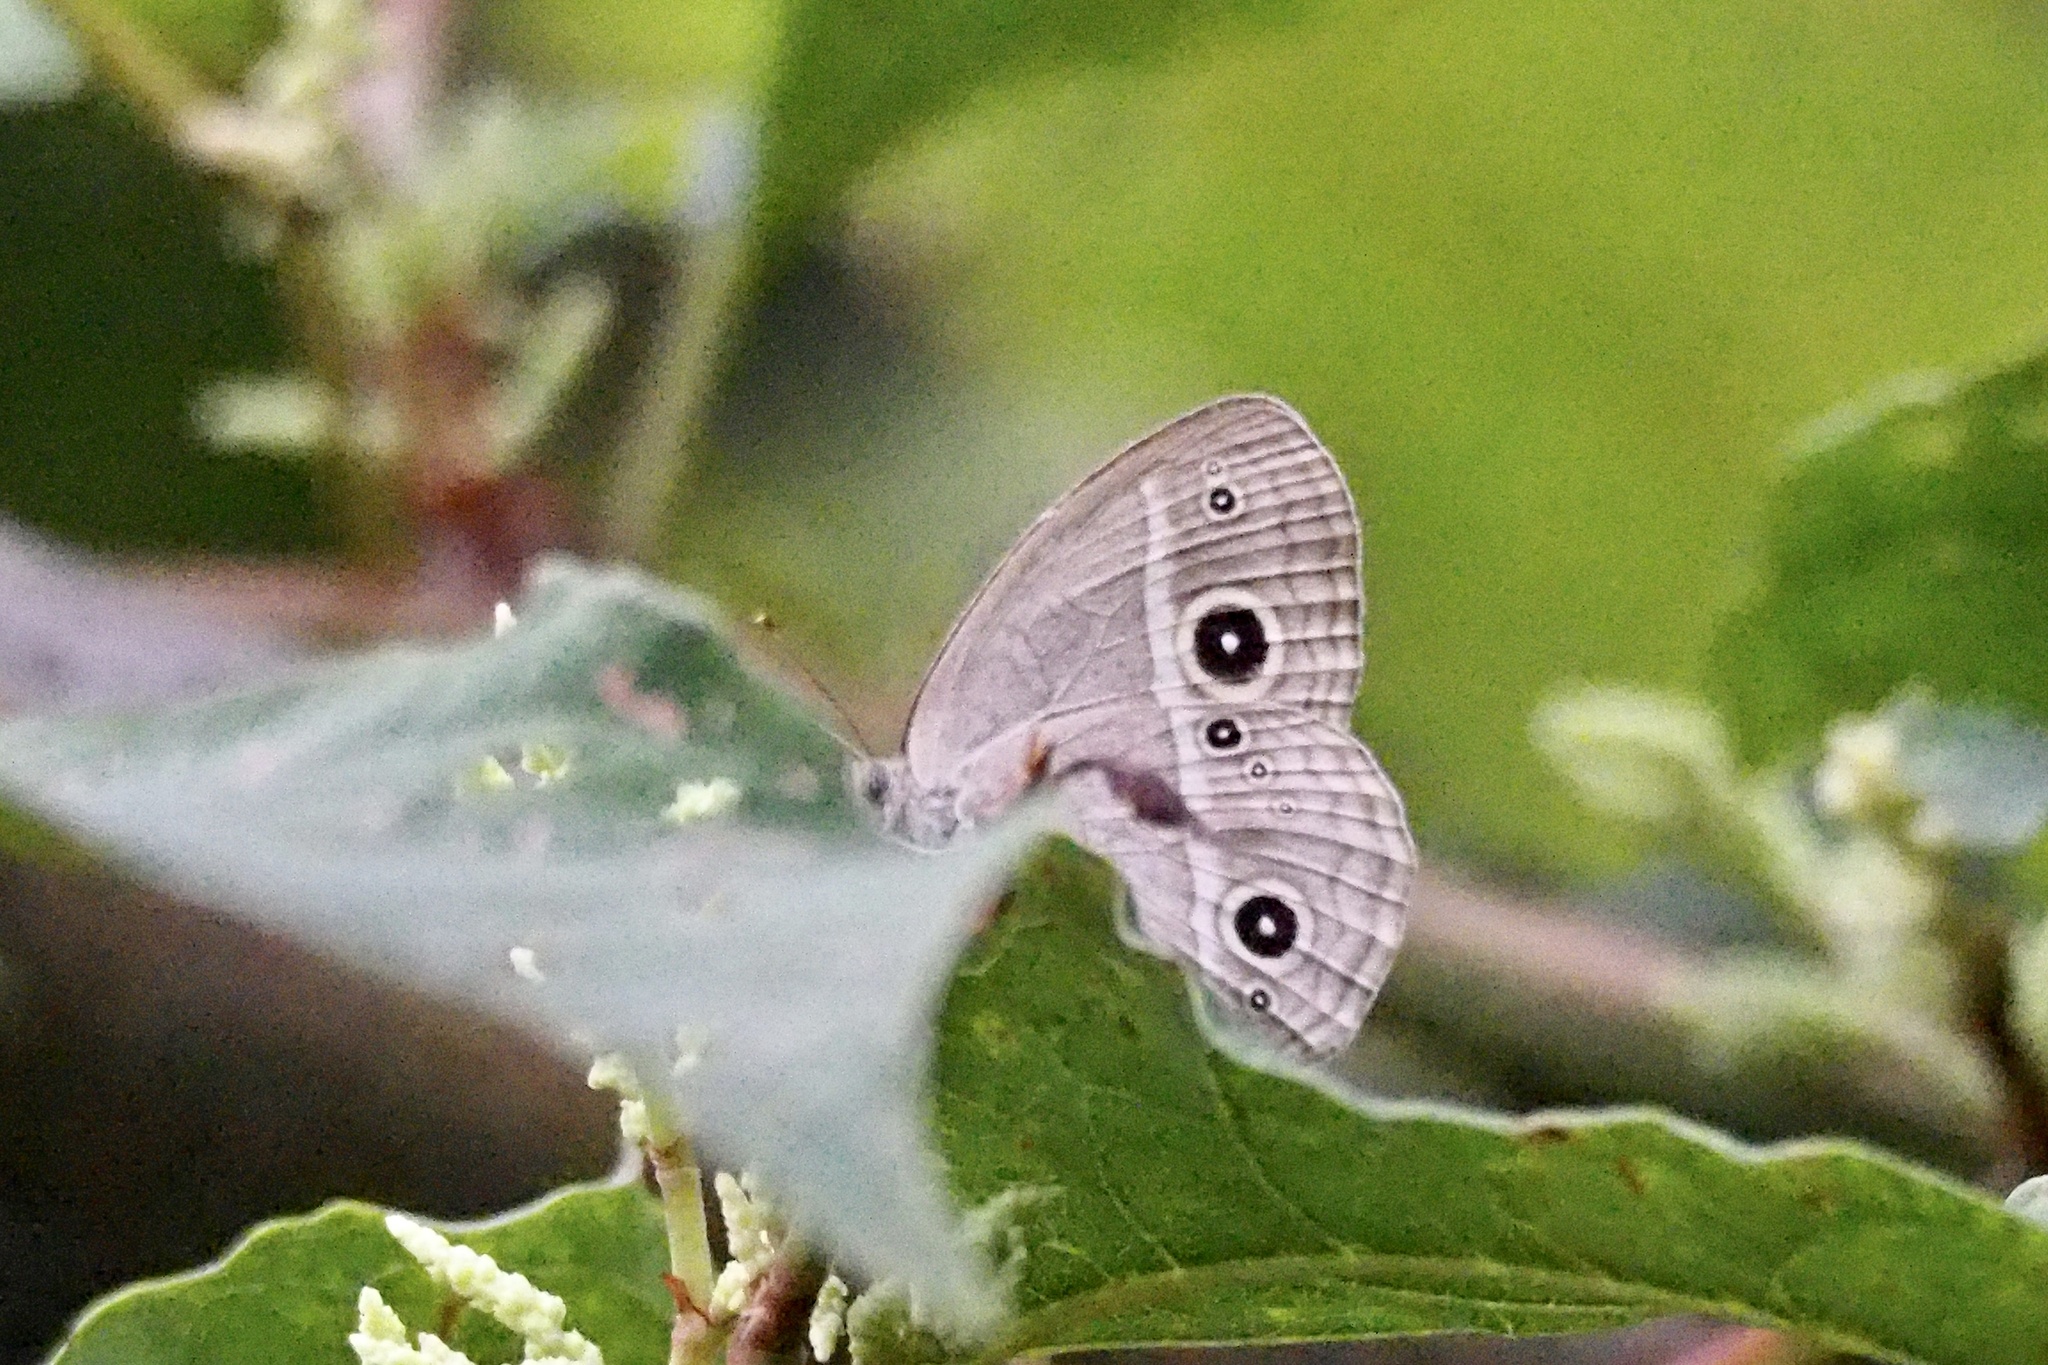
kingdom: Animalia
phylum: Arthropoda
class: Insecta
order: Lepidoptera
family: Nymphalidae
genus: Mycalesis
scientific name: Mycalesis gotama
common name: Chinese bushbrown
